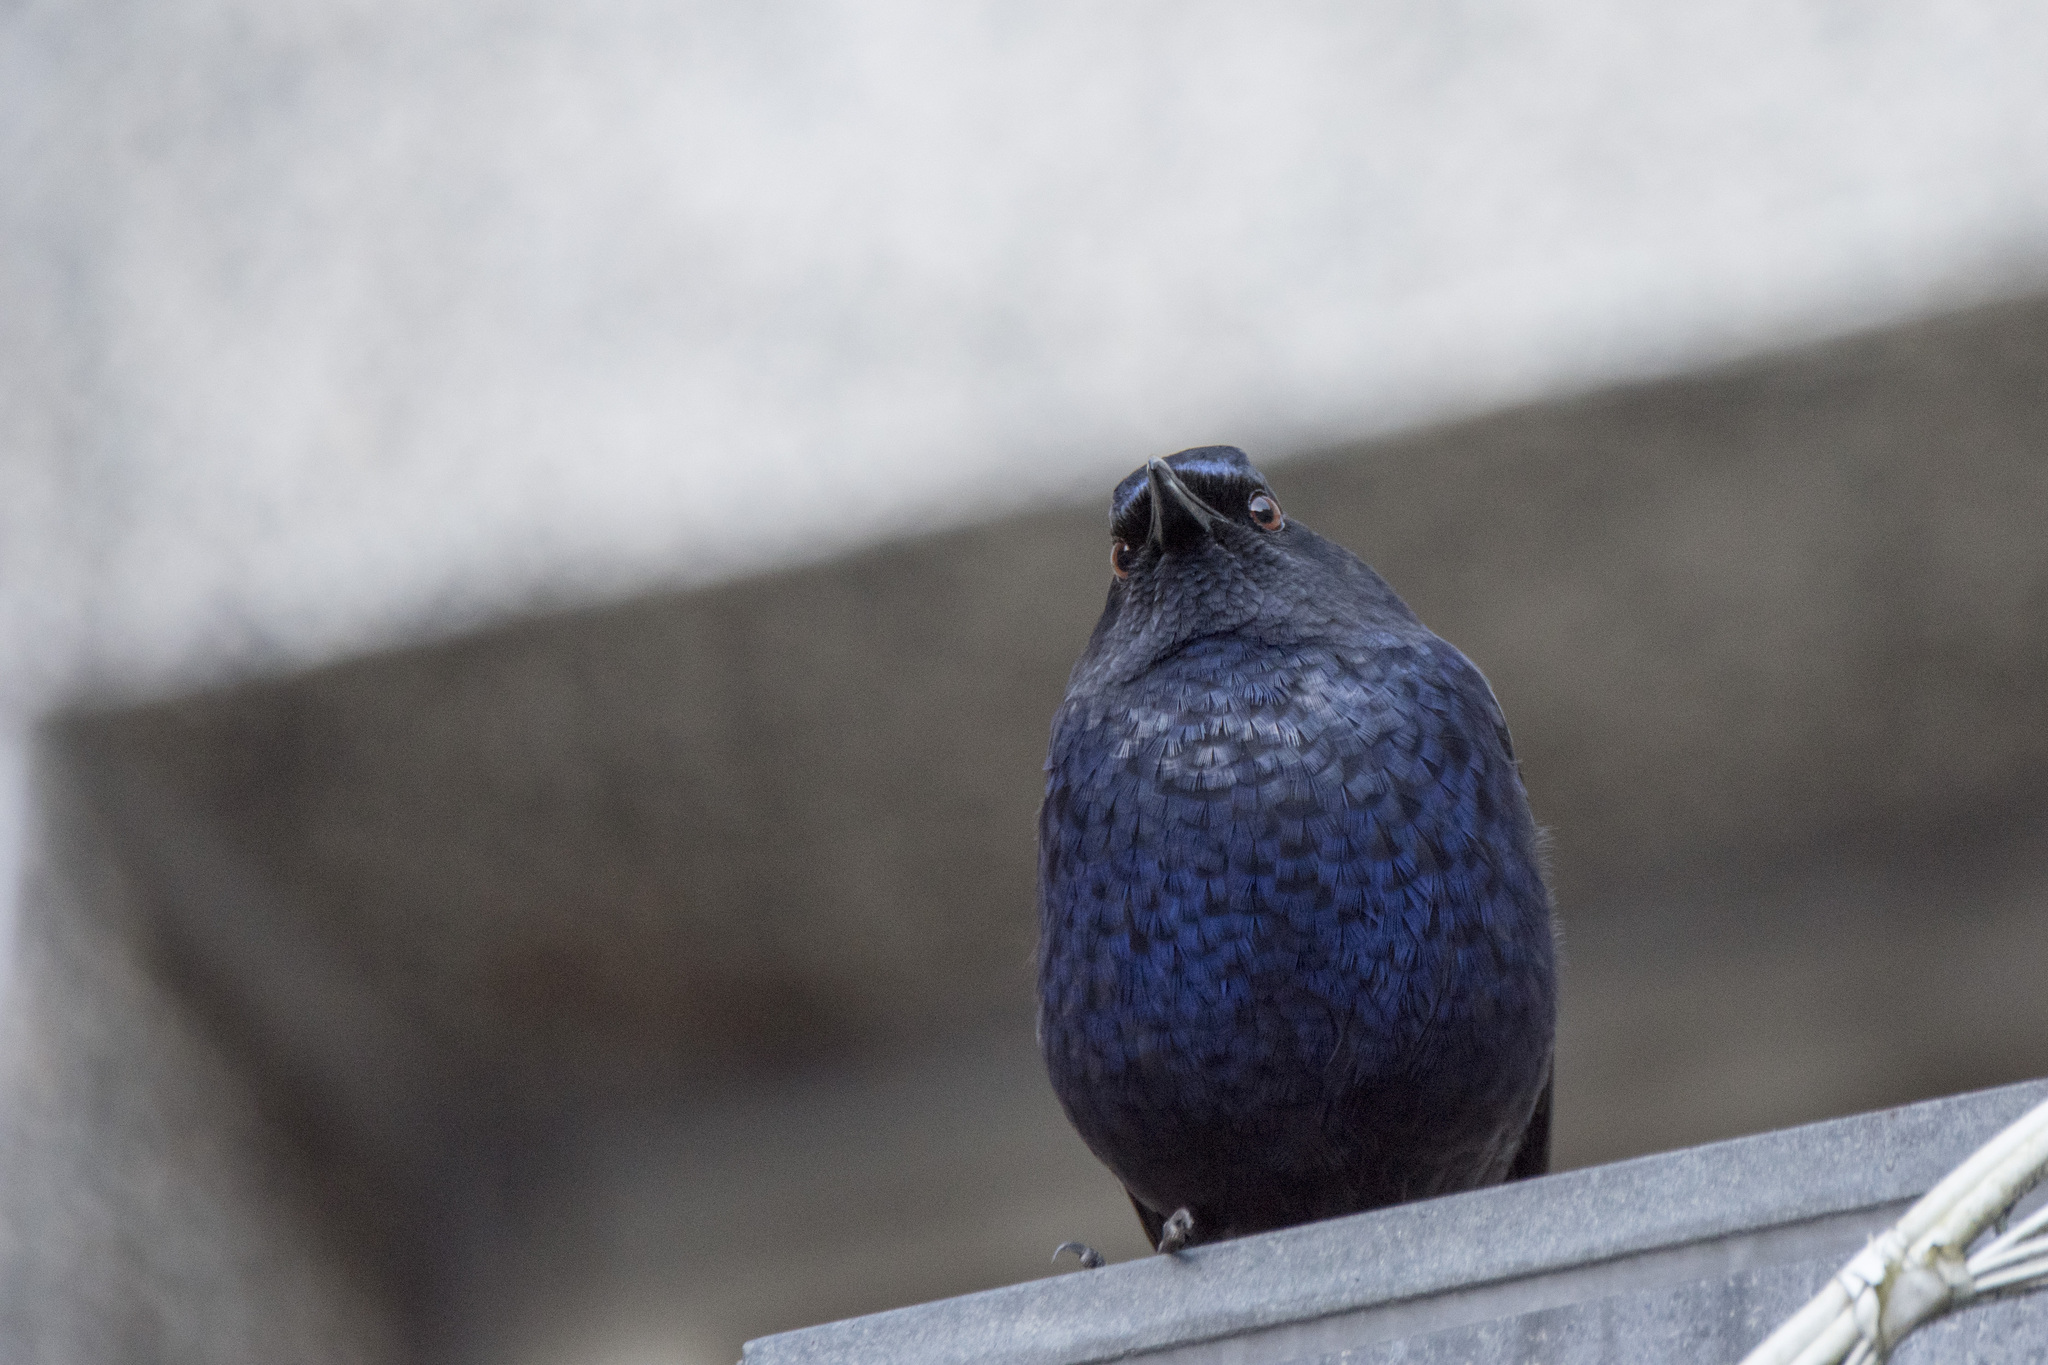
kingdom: Animalia
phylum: Chordata
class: Aves
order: Passeriformes
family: Muscicapidae
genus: Myophonus
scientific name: Myophonus insularis
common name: Taiwan whistling-thrush
